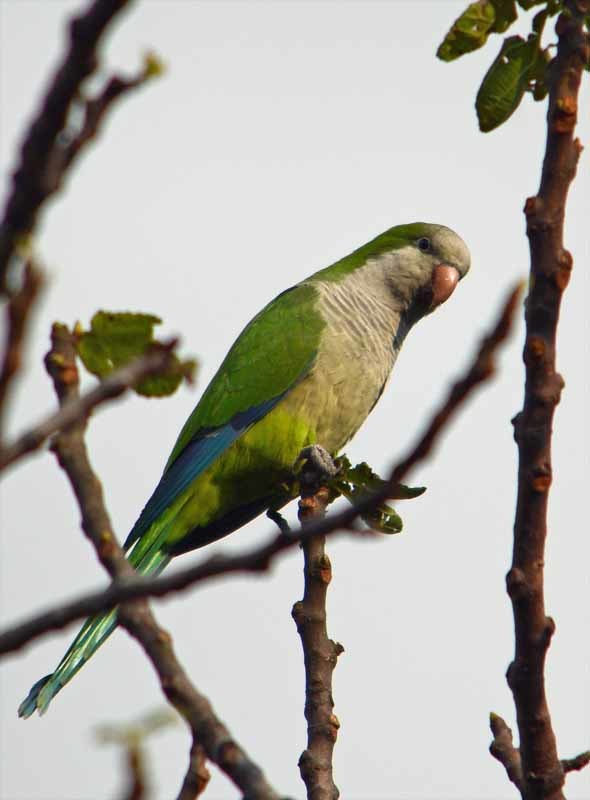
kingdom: Animalia
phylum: Chordata
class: Aves
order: Psittaciformes
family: Psittacidae
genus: Myiopsitta
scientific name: Myiopsitta monachus
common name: Monk parakeet
